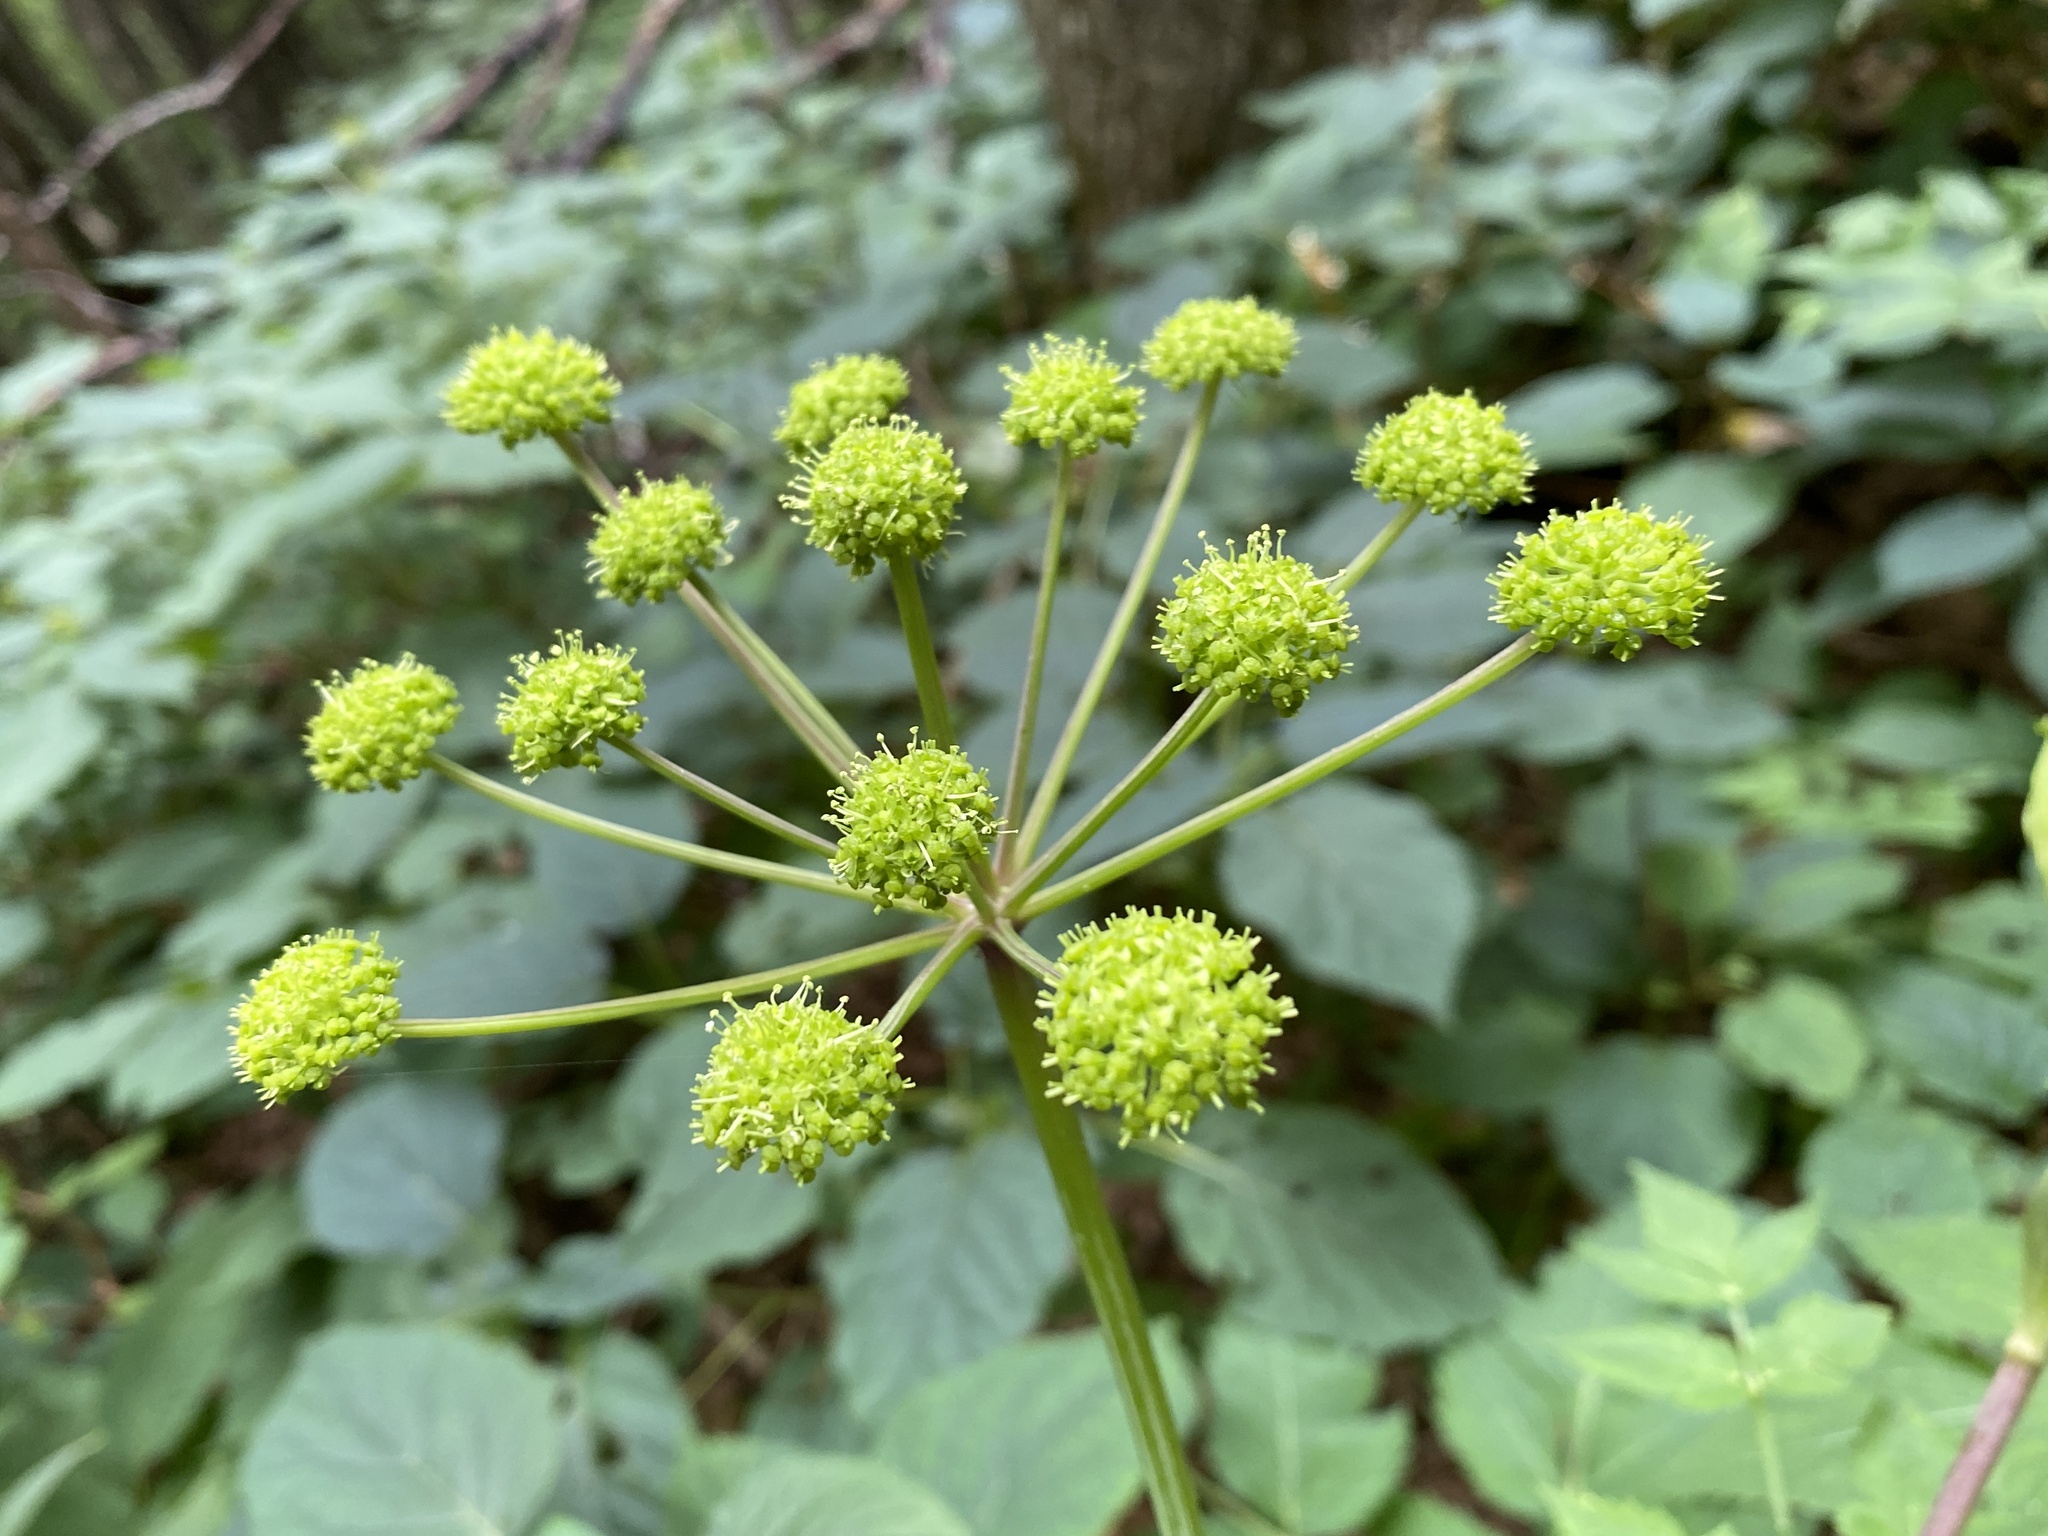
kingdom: Plantae
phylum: Tracheophyta
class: Magnoliopsida
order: Apiales
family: Apiaceae
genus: Angelica
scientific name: Angelica triquinata
